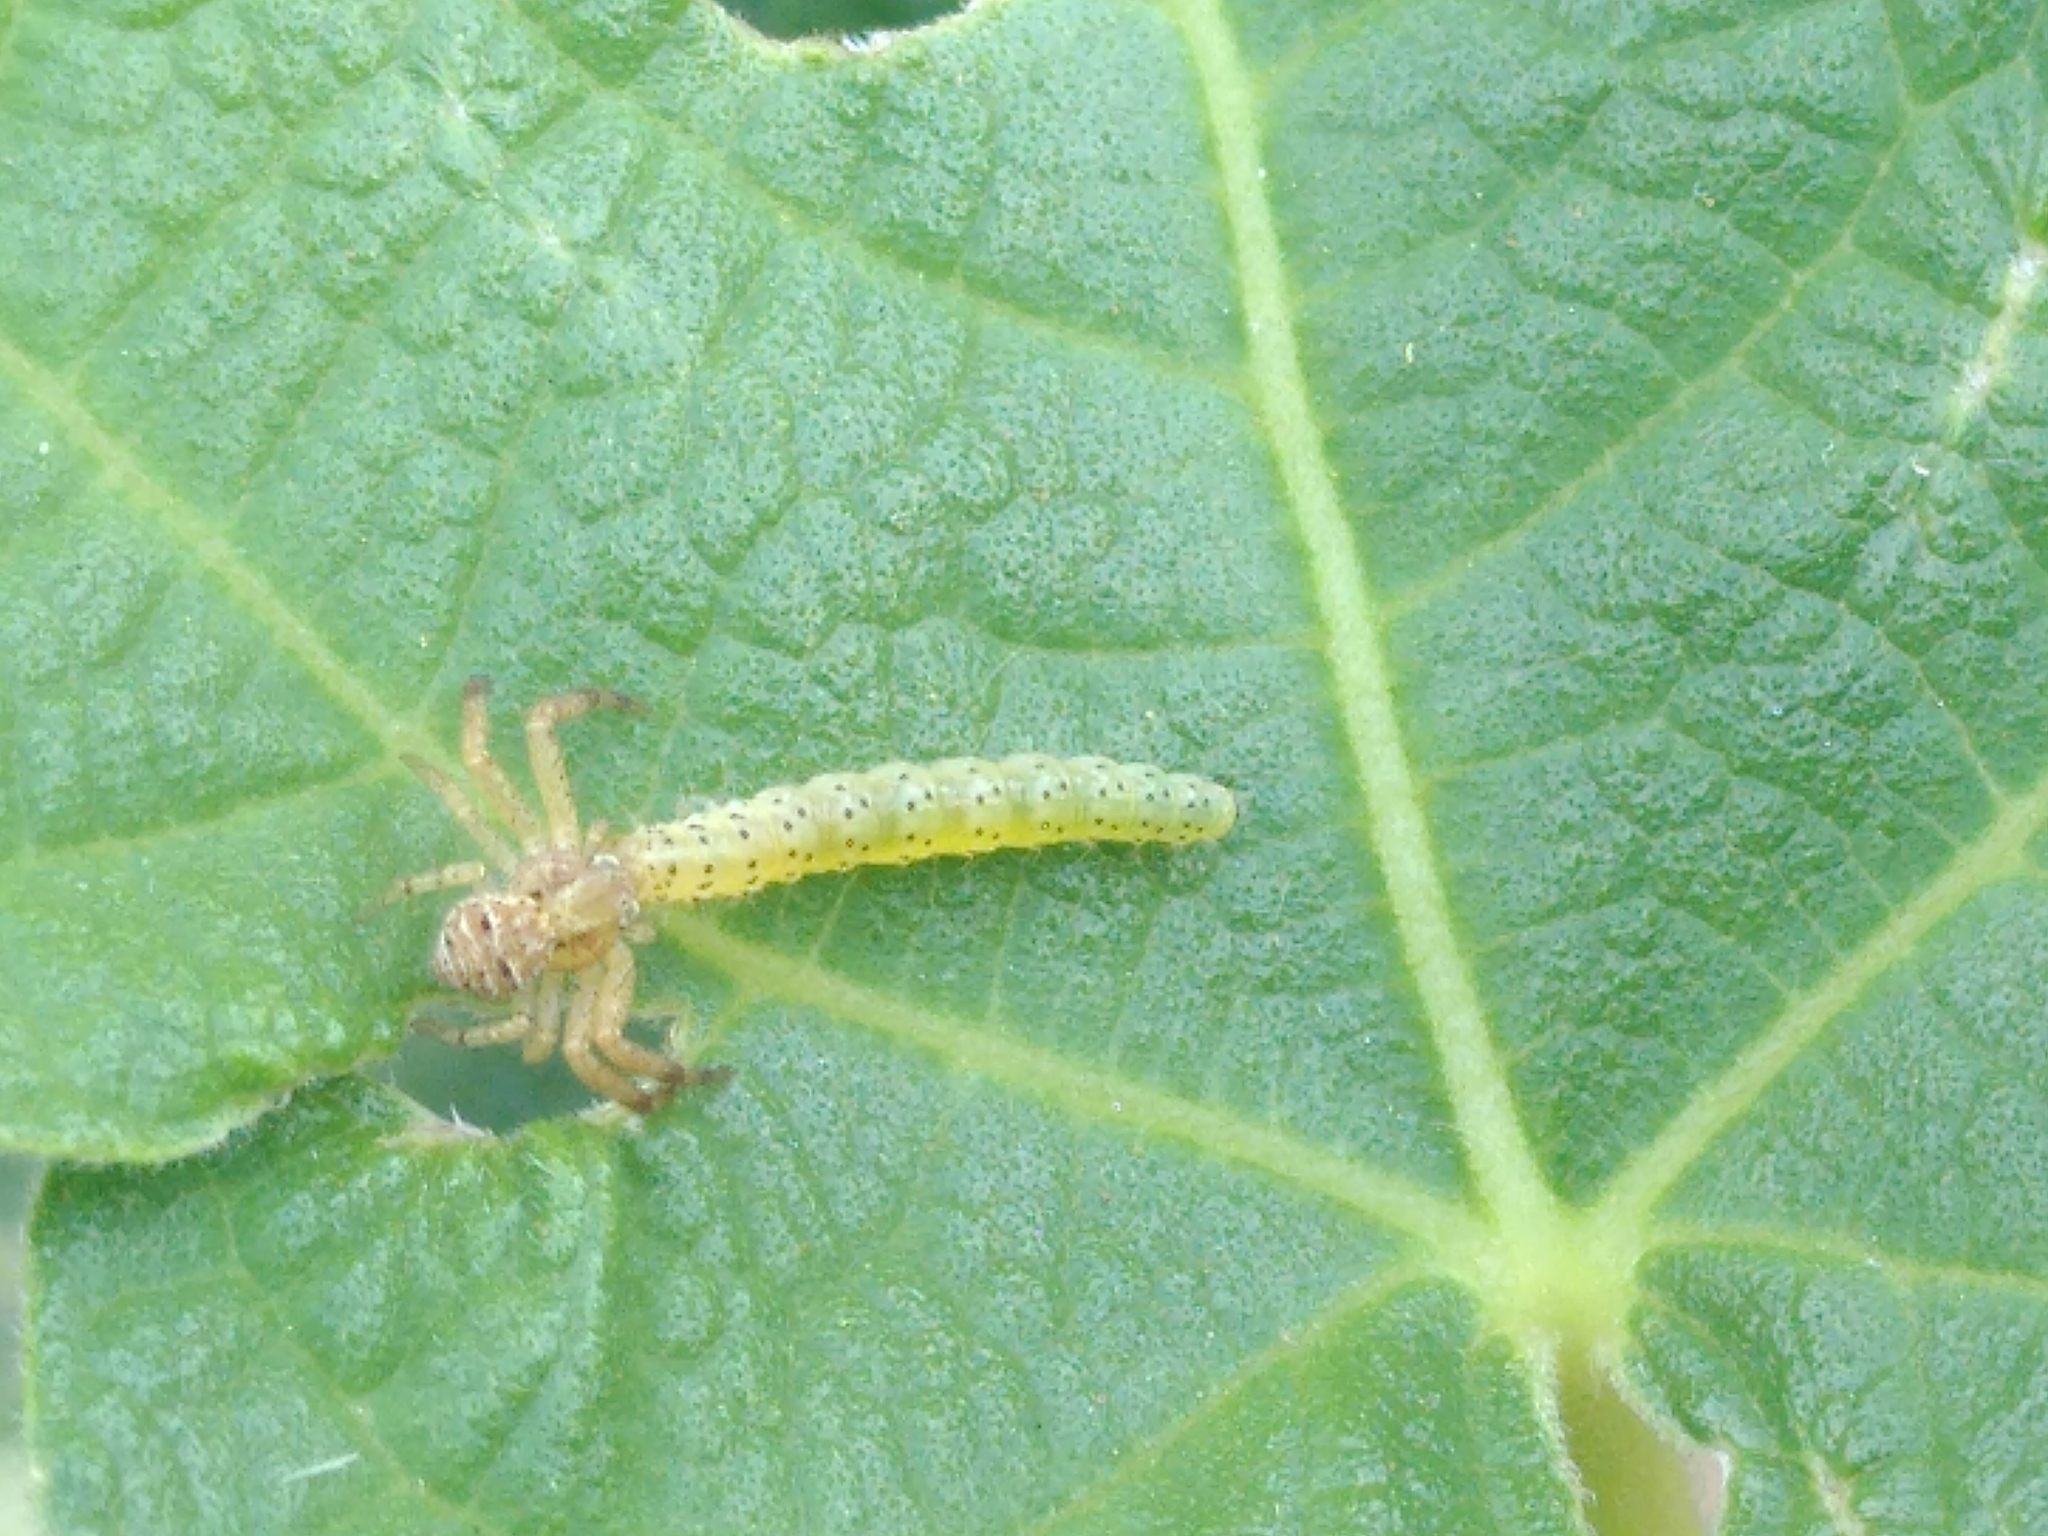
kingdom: Animalia
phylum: Arthropoda
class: Insecta
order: Lepidoptera
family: Choreutidae
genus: Anthophila
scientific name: Anthophila nemorana
